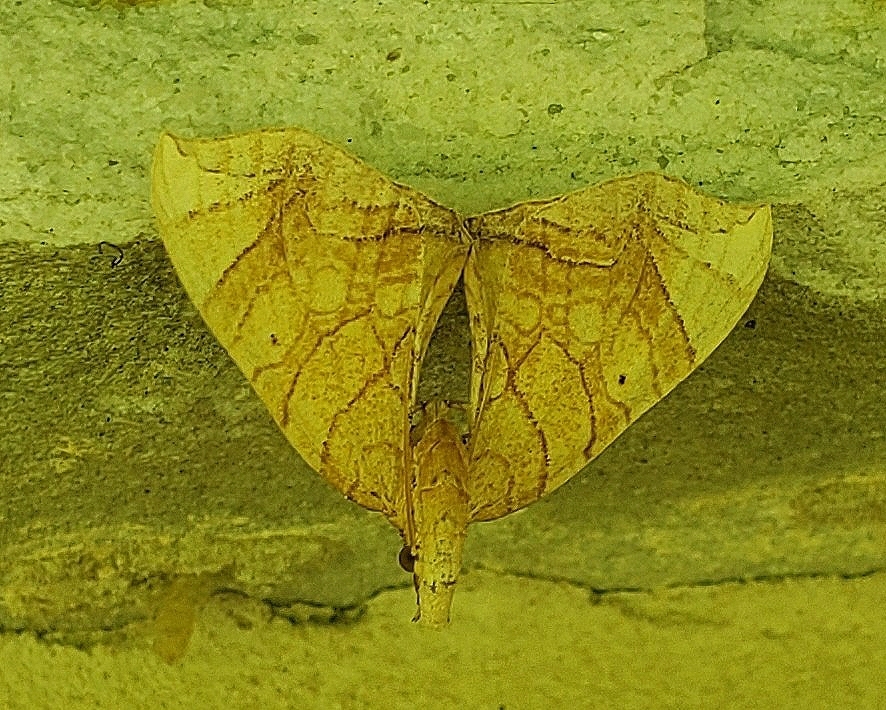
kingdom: Animalia
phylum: Arthropoda
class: Insecta
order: Lepidoptera
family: Geometridae
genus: Eulithis
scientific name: Eulithis gracilineata
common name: Greater grapevine looper moth
